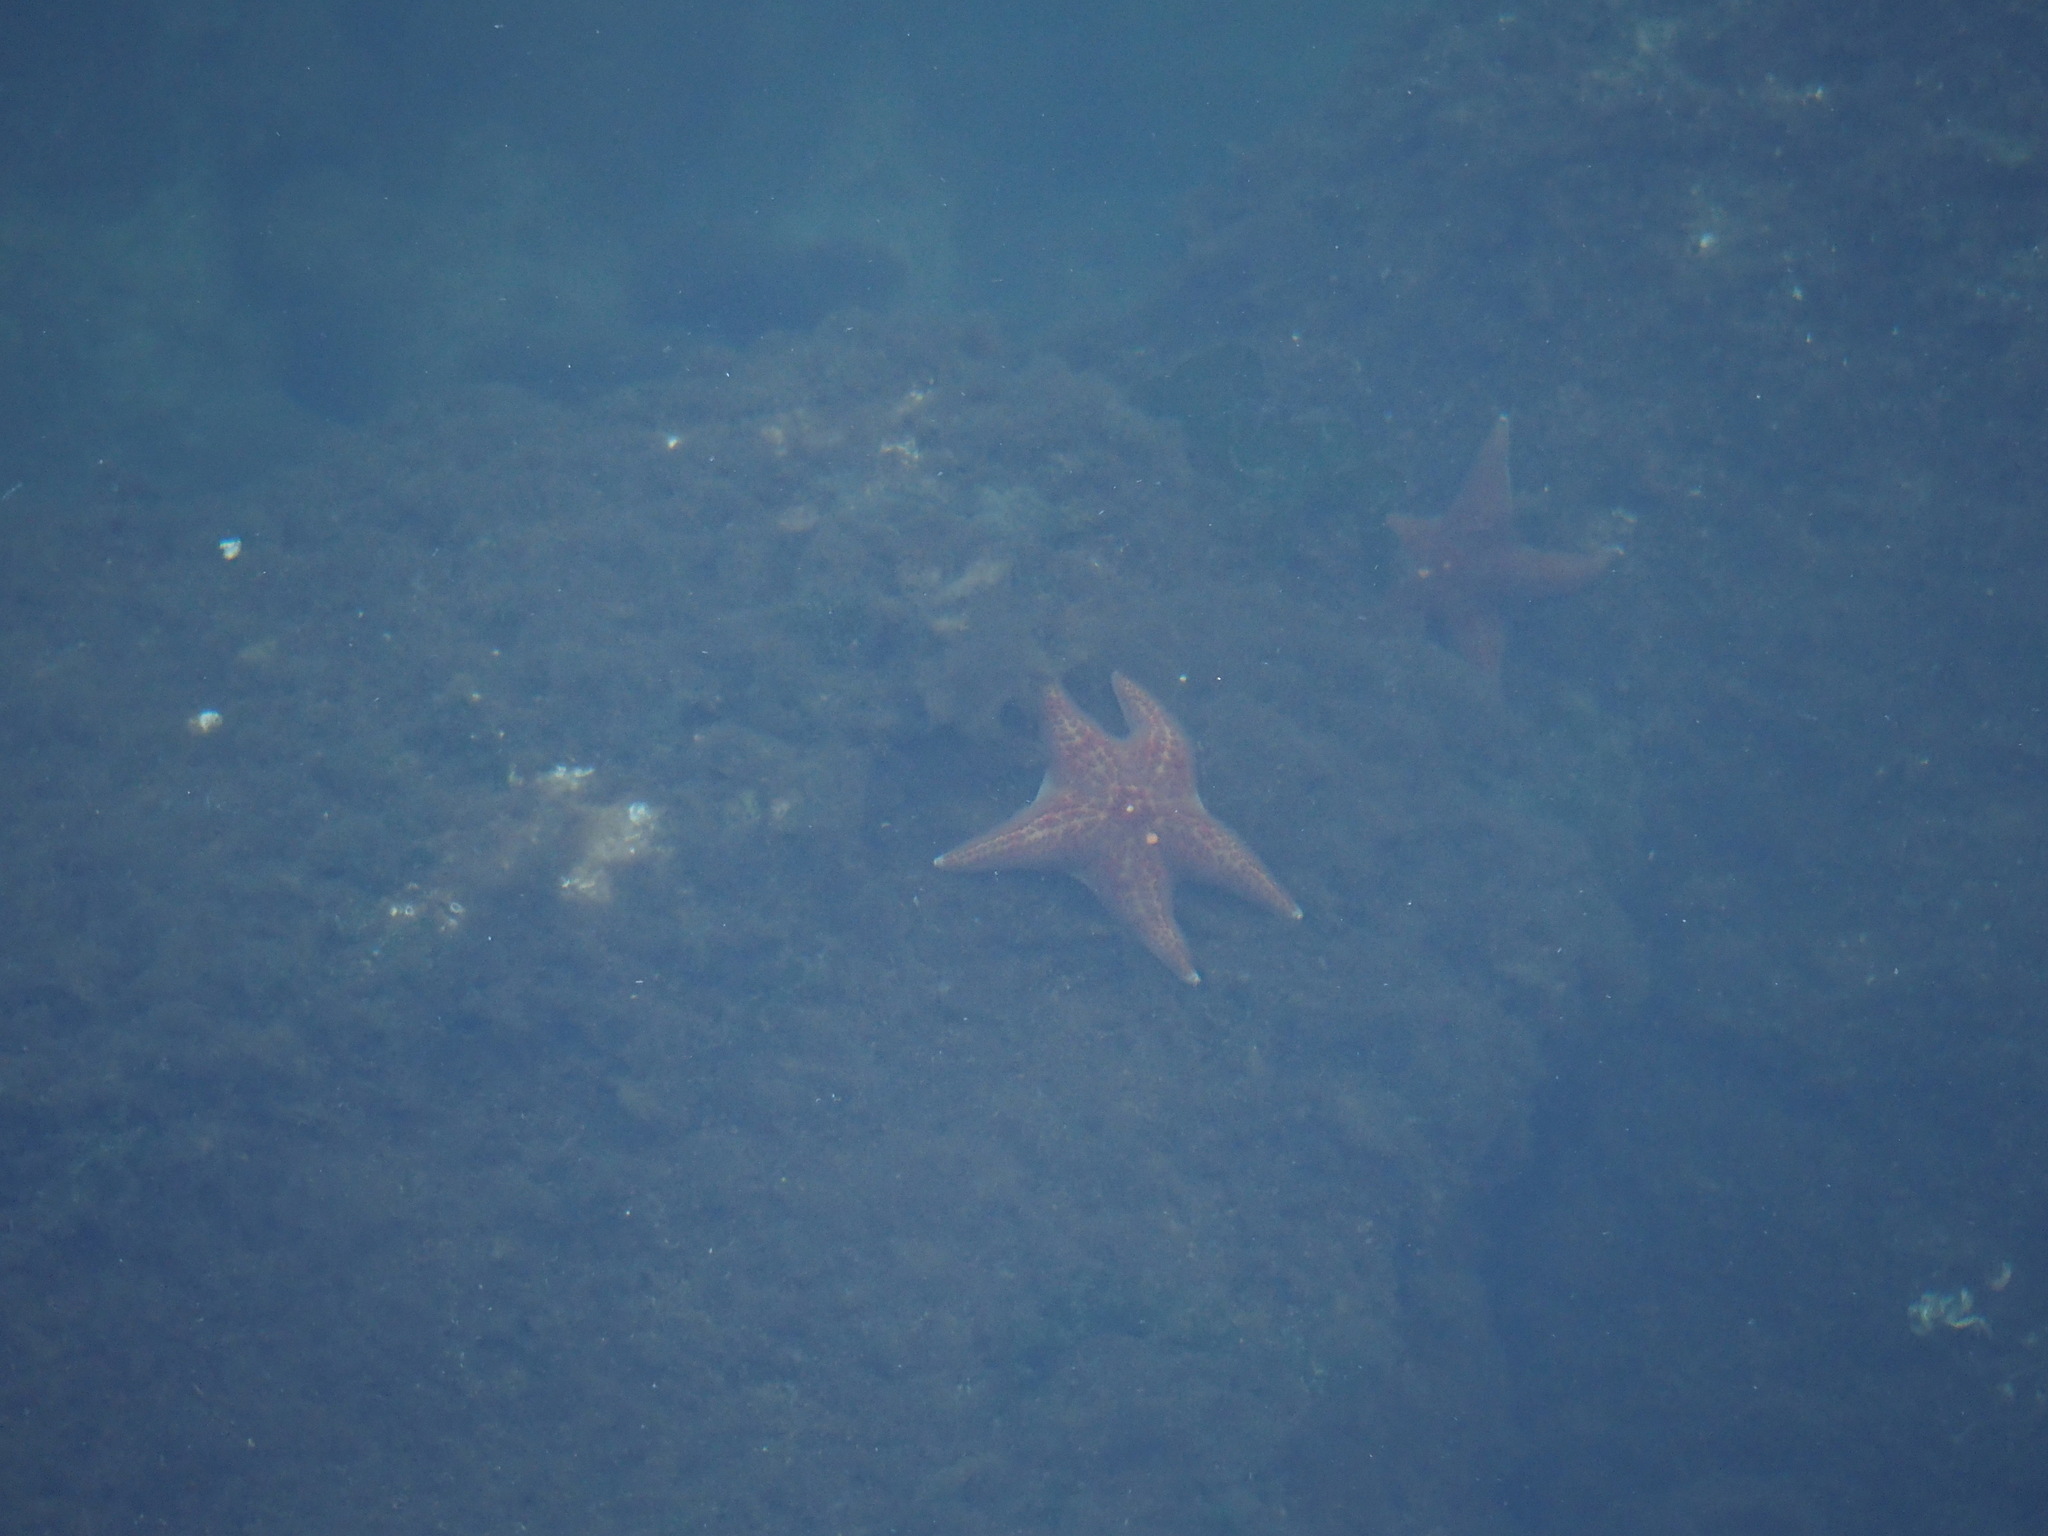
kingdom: Animalia
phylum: Echinodermata
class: Asteroidea
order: Valvatida
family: Asteropseidae
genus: Dermasterias
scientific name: Dermasterias imbricata
